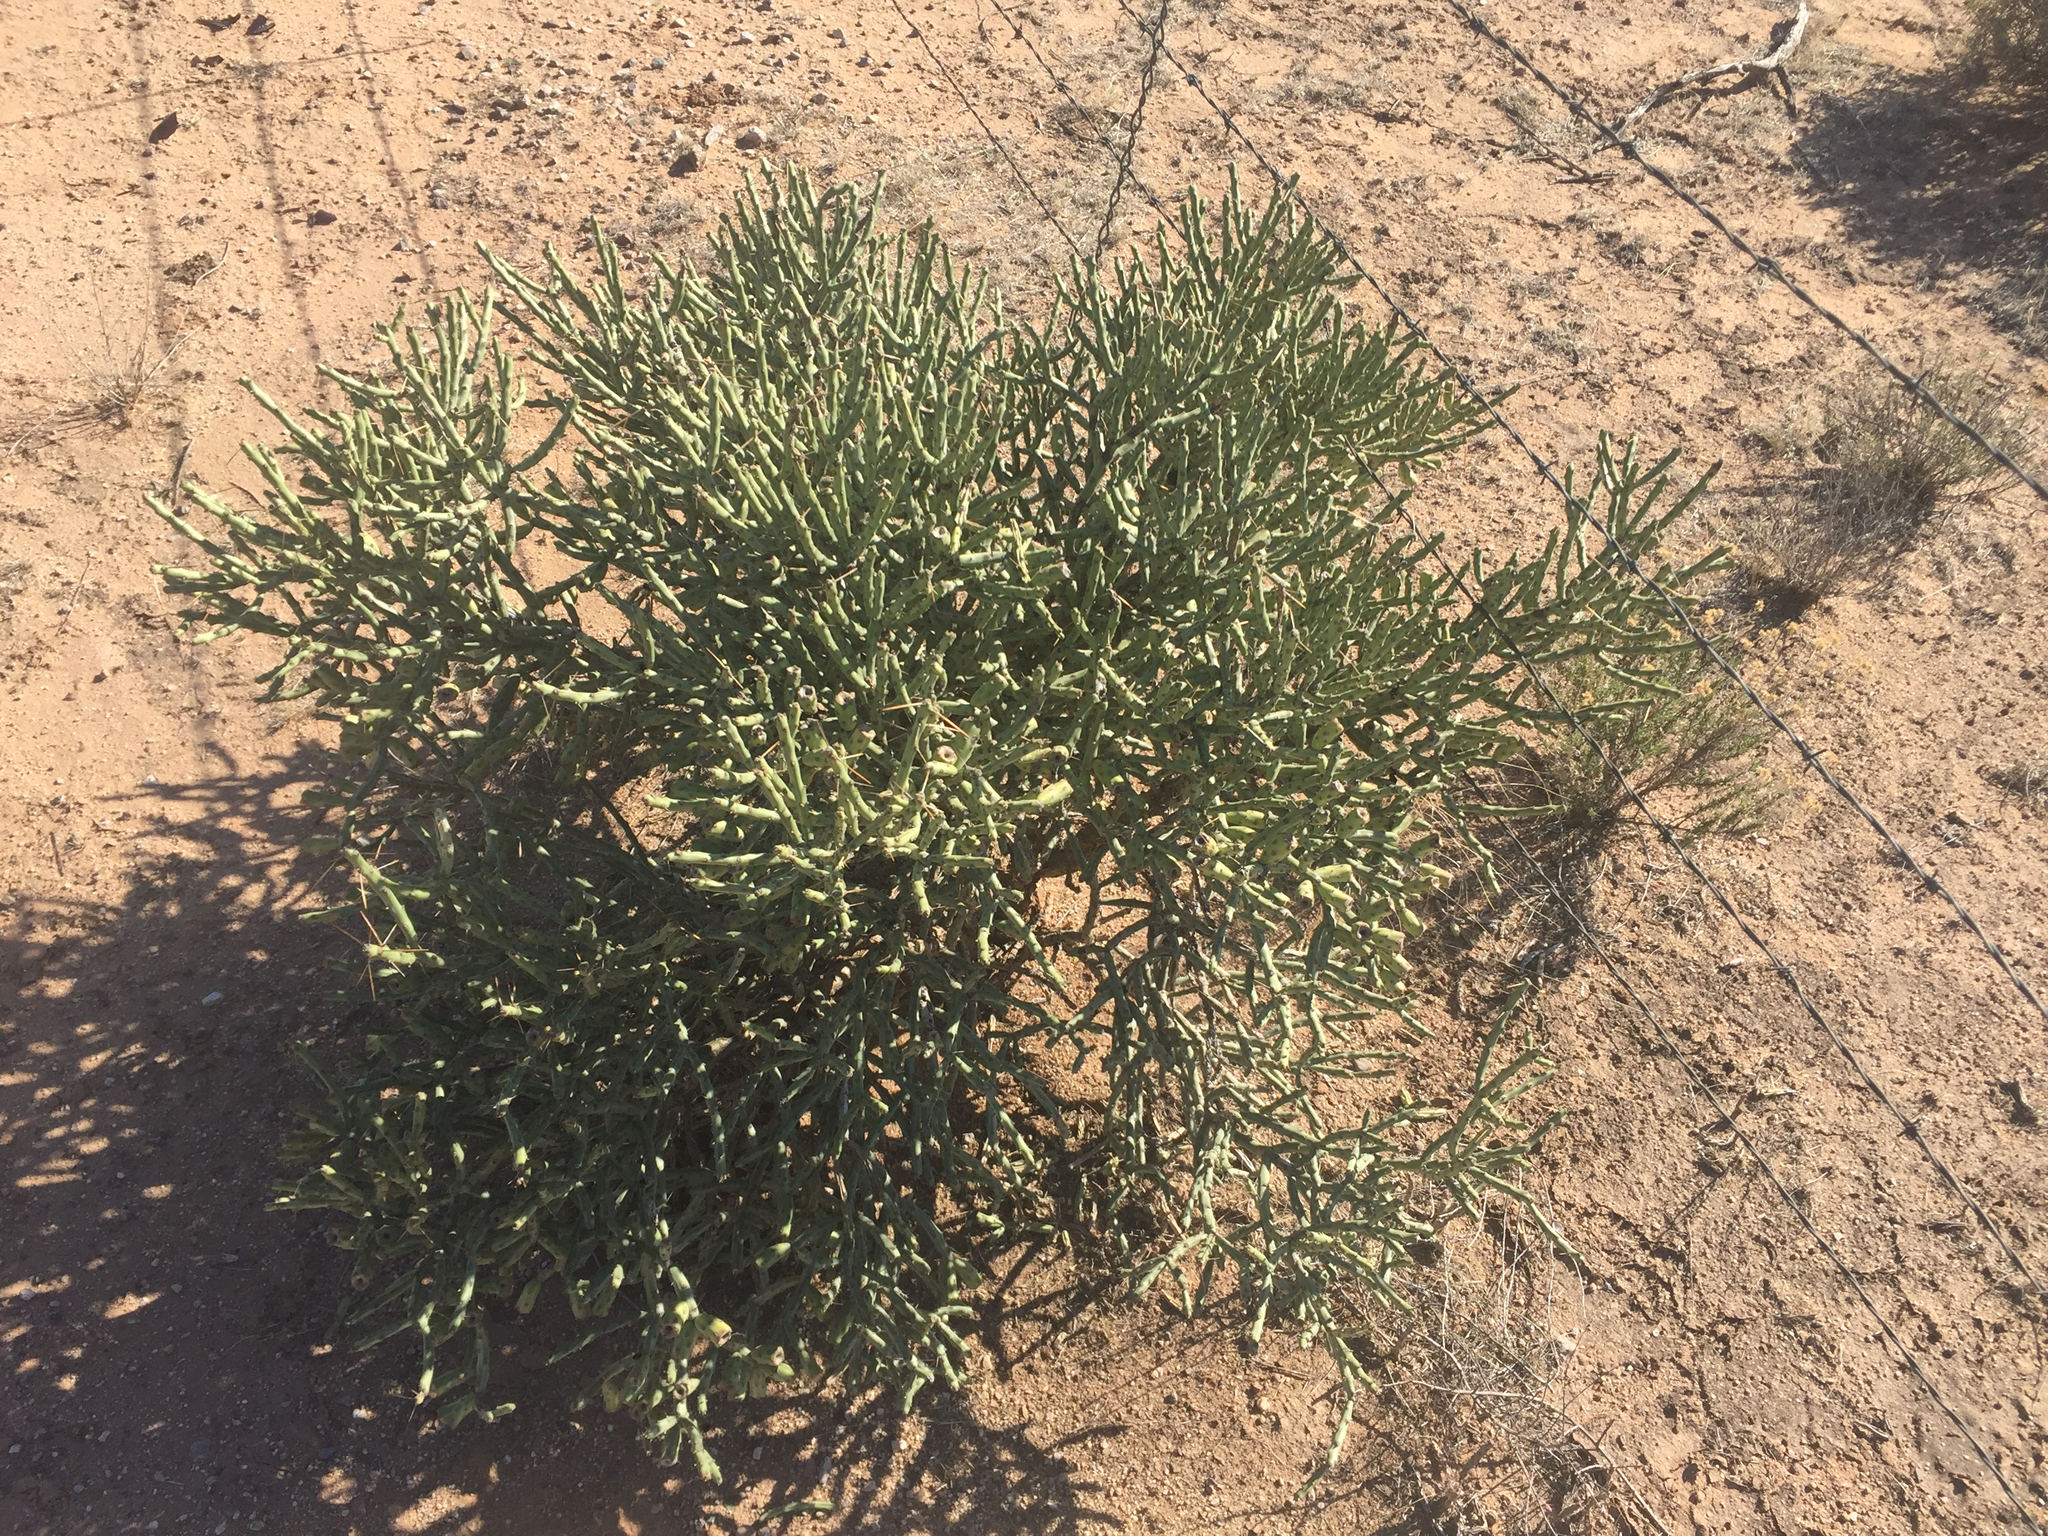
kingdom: Plantae
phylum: Tracheophyta
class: Magnoliopsida
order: Caryophyllales
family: Cactaceae
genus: Cylindropuntia
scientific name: Cylindropuntia arbuscula
